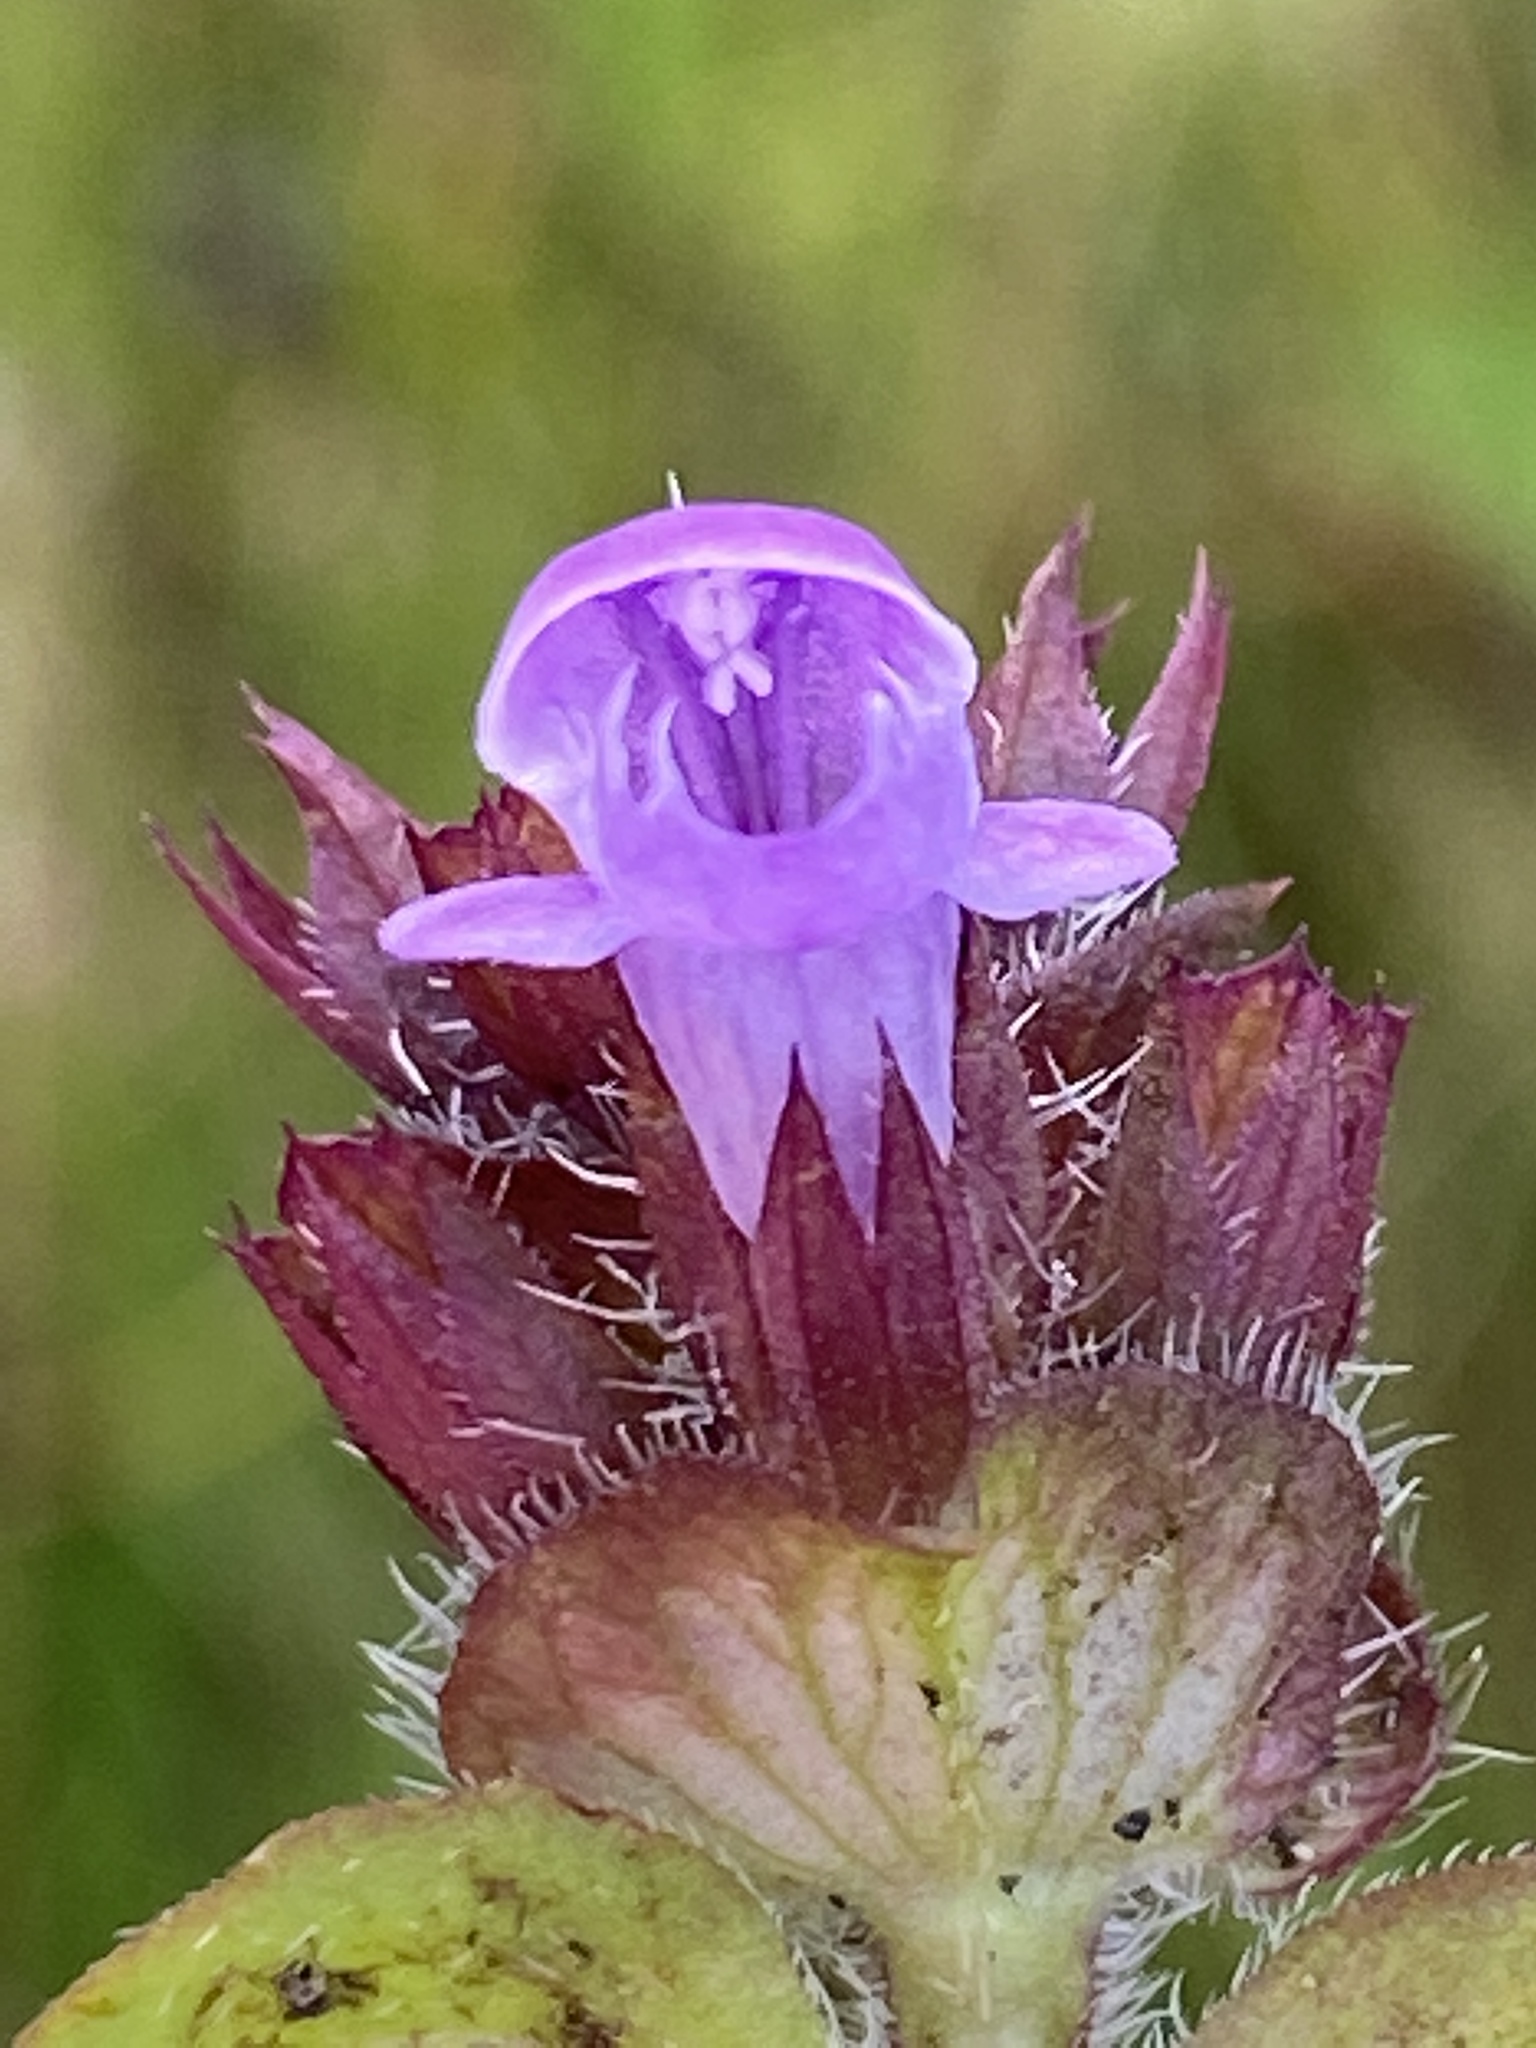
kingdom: Plantae
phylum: Tracheophyta
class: Magnoliopsida
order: Lamiales
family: Lamiaceae
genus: Prunella
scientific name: Prunella vulgaris
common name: Heal-all
